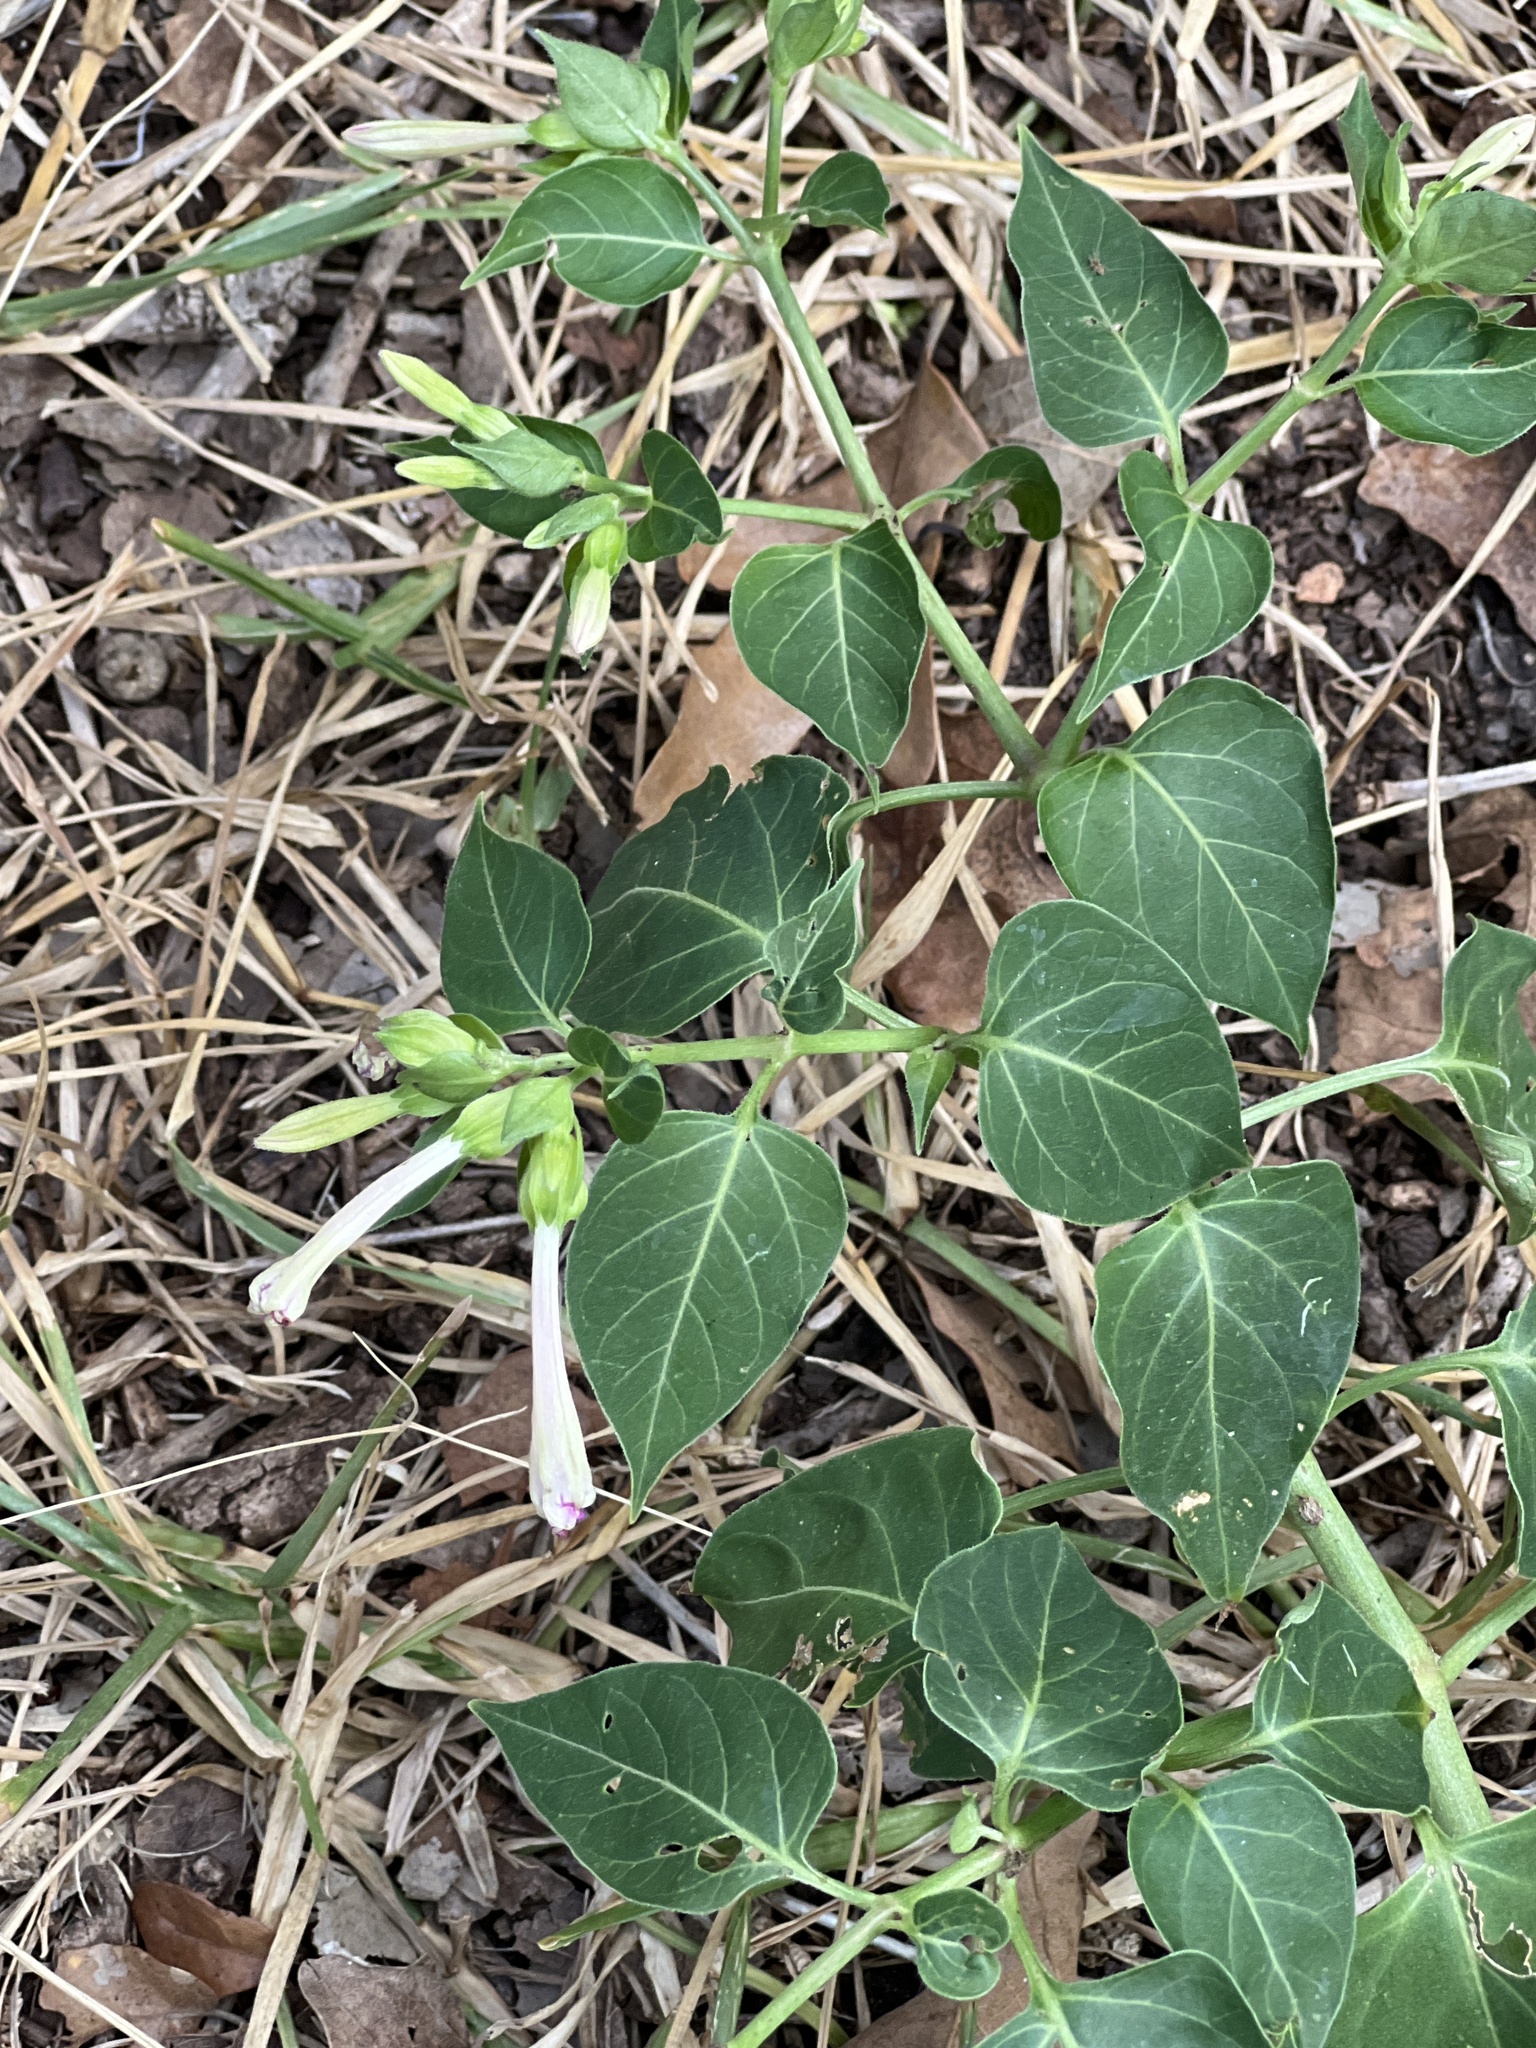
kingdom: Plantae
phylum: Tracheophyta
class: Magnoliopsida
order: Caryophyllales
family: Nyctaginaceae
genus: Mirabilis
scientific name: Mirabilis jalapa
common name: Marvel-of-peru
